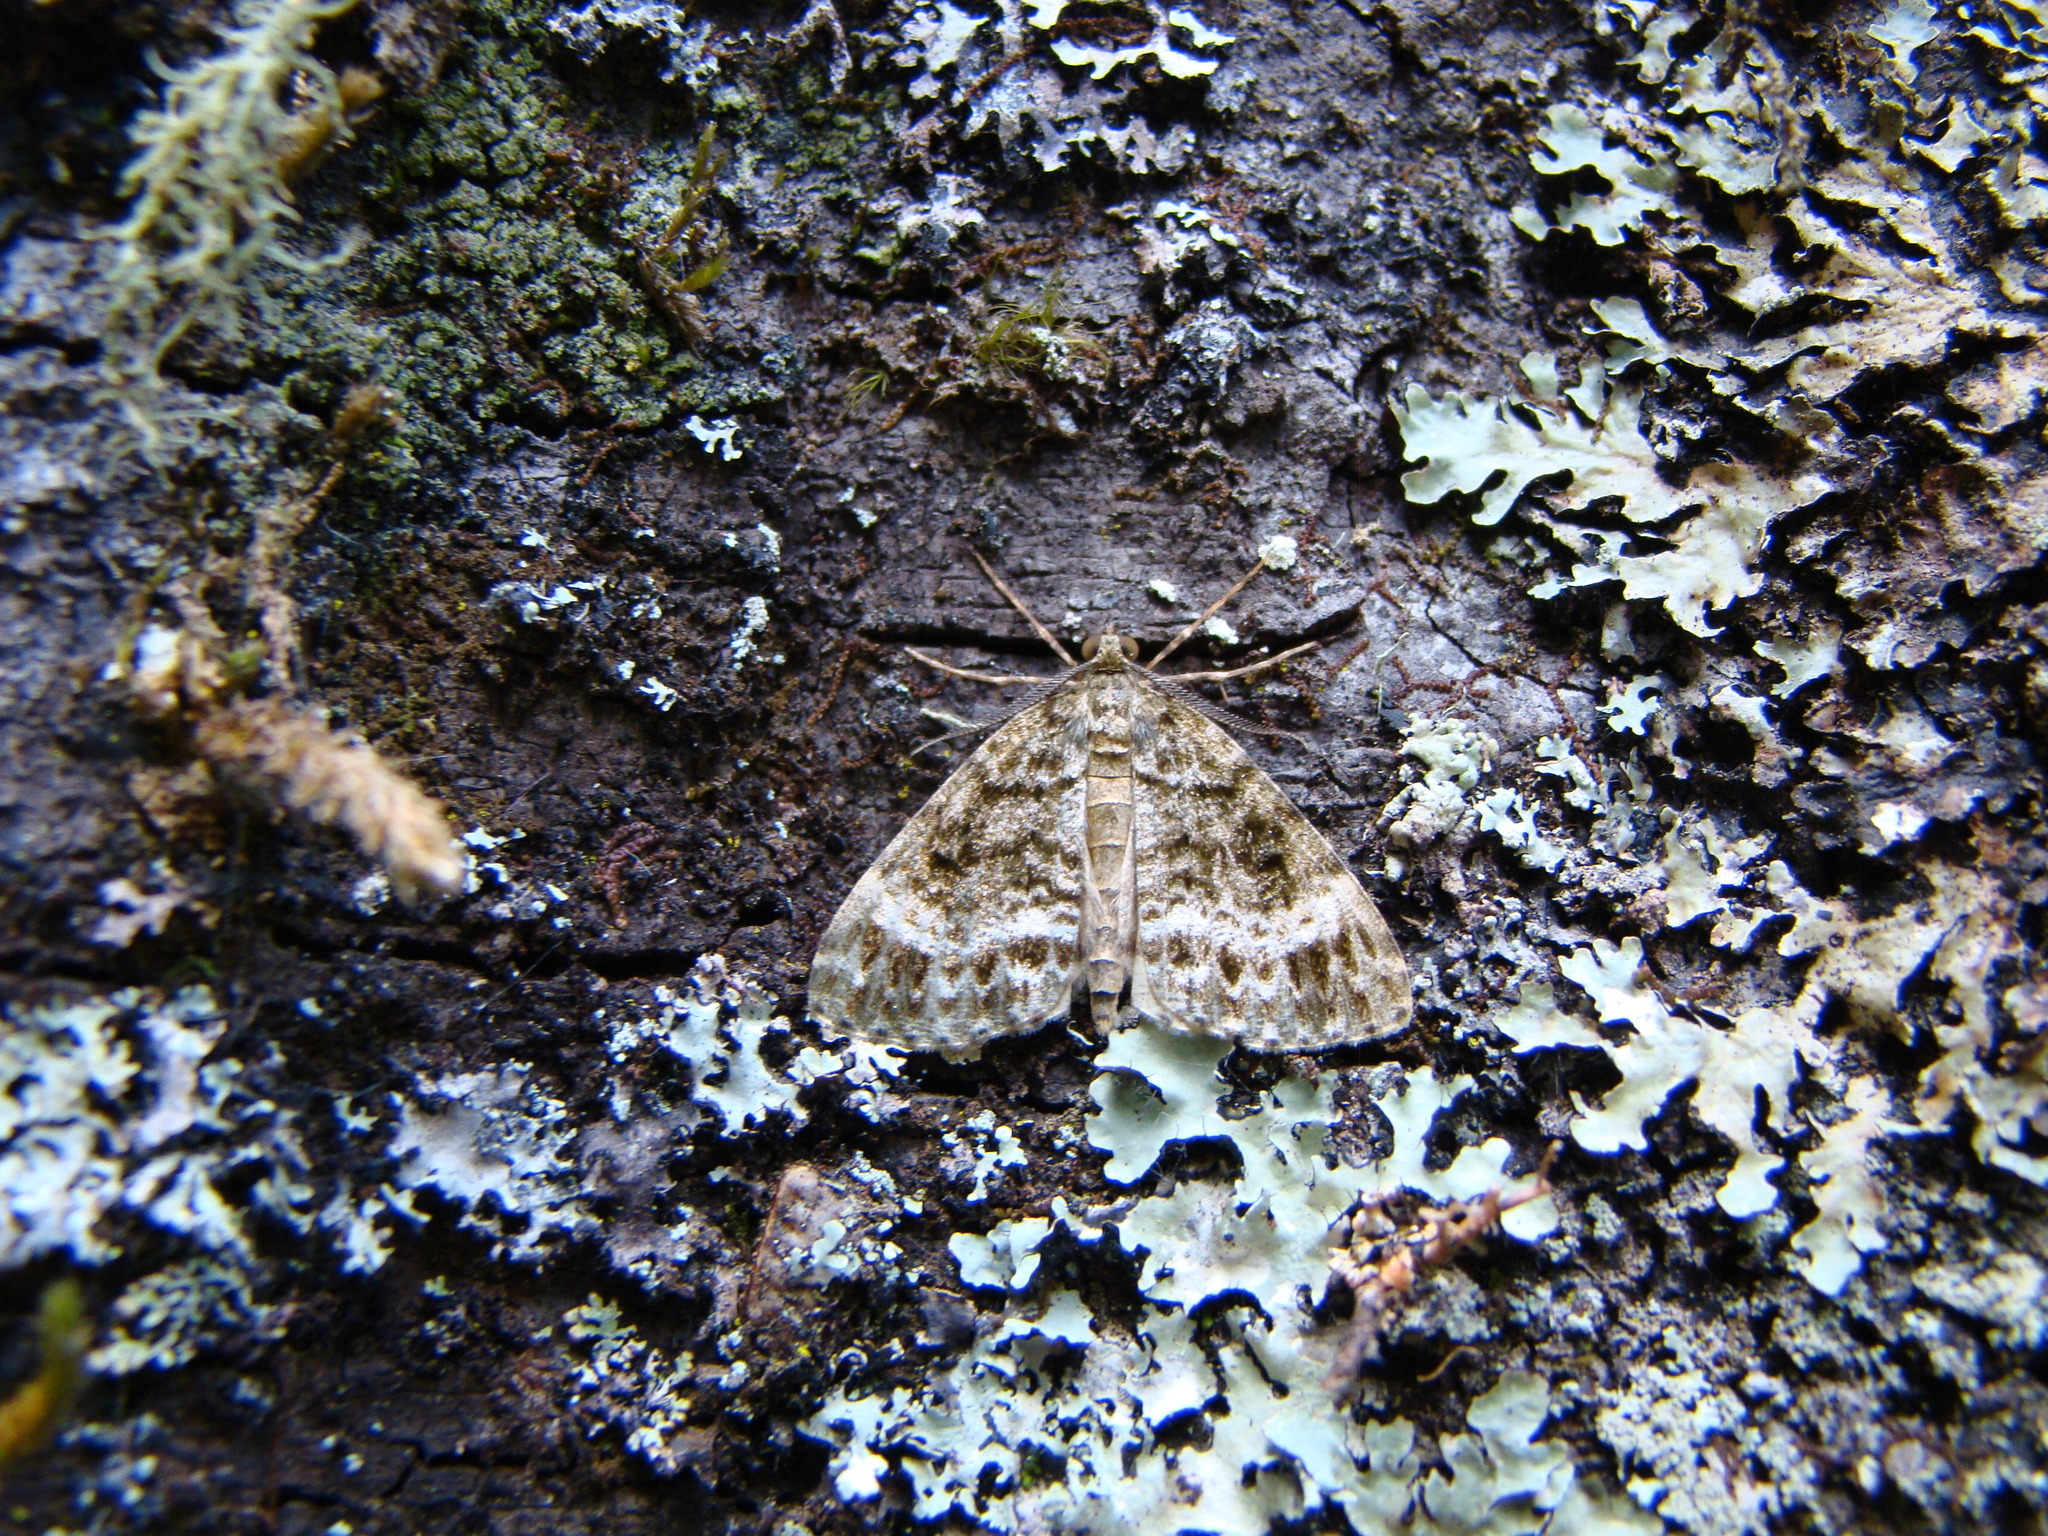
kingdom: Animalia
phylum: Arthropoda
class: Insecta
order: Lepidoptera
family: Geometridae
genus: Pseudocoremia
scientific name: Pseudocoremia indistincta
